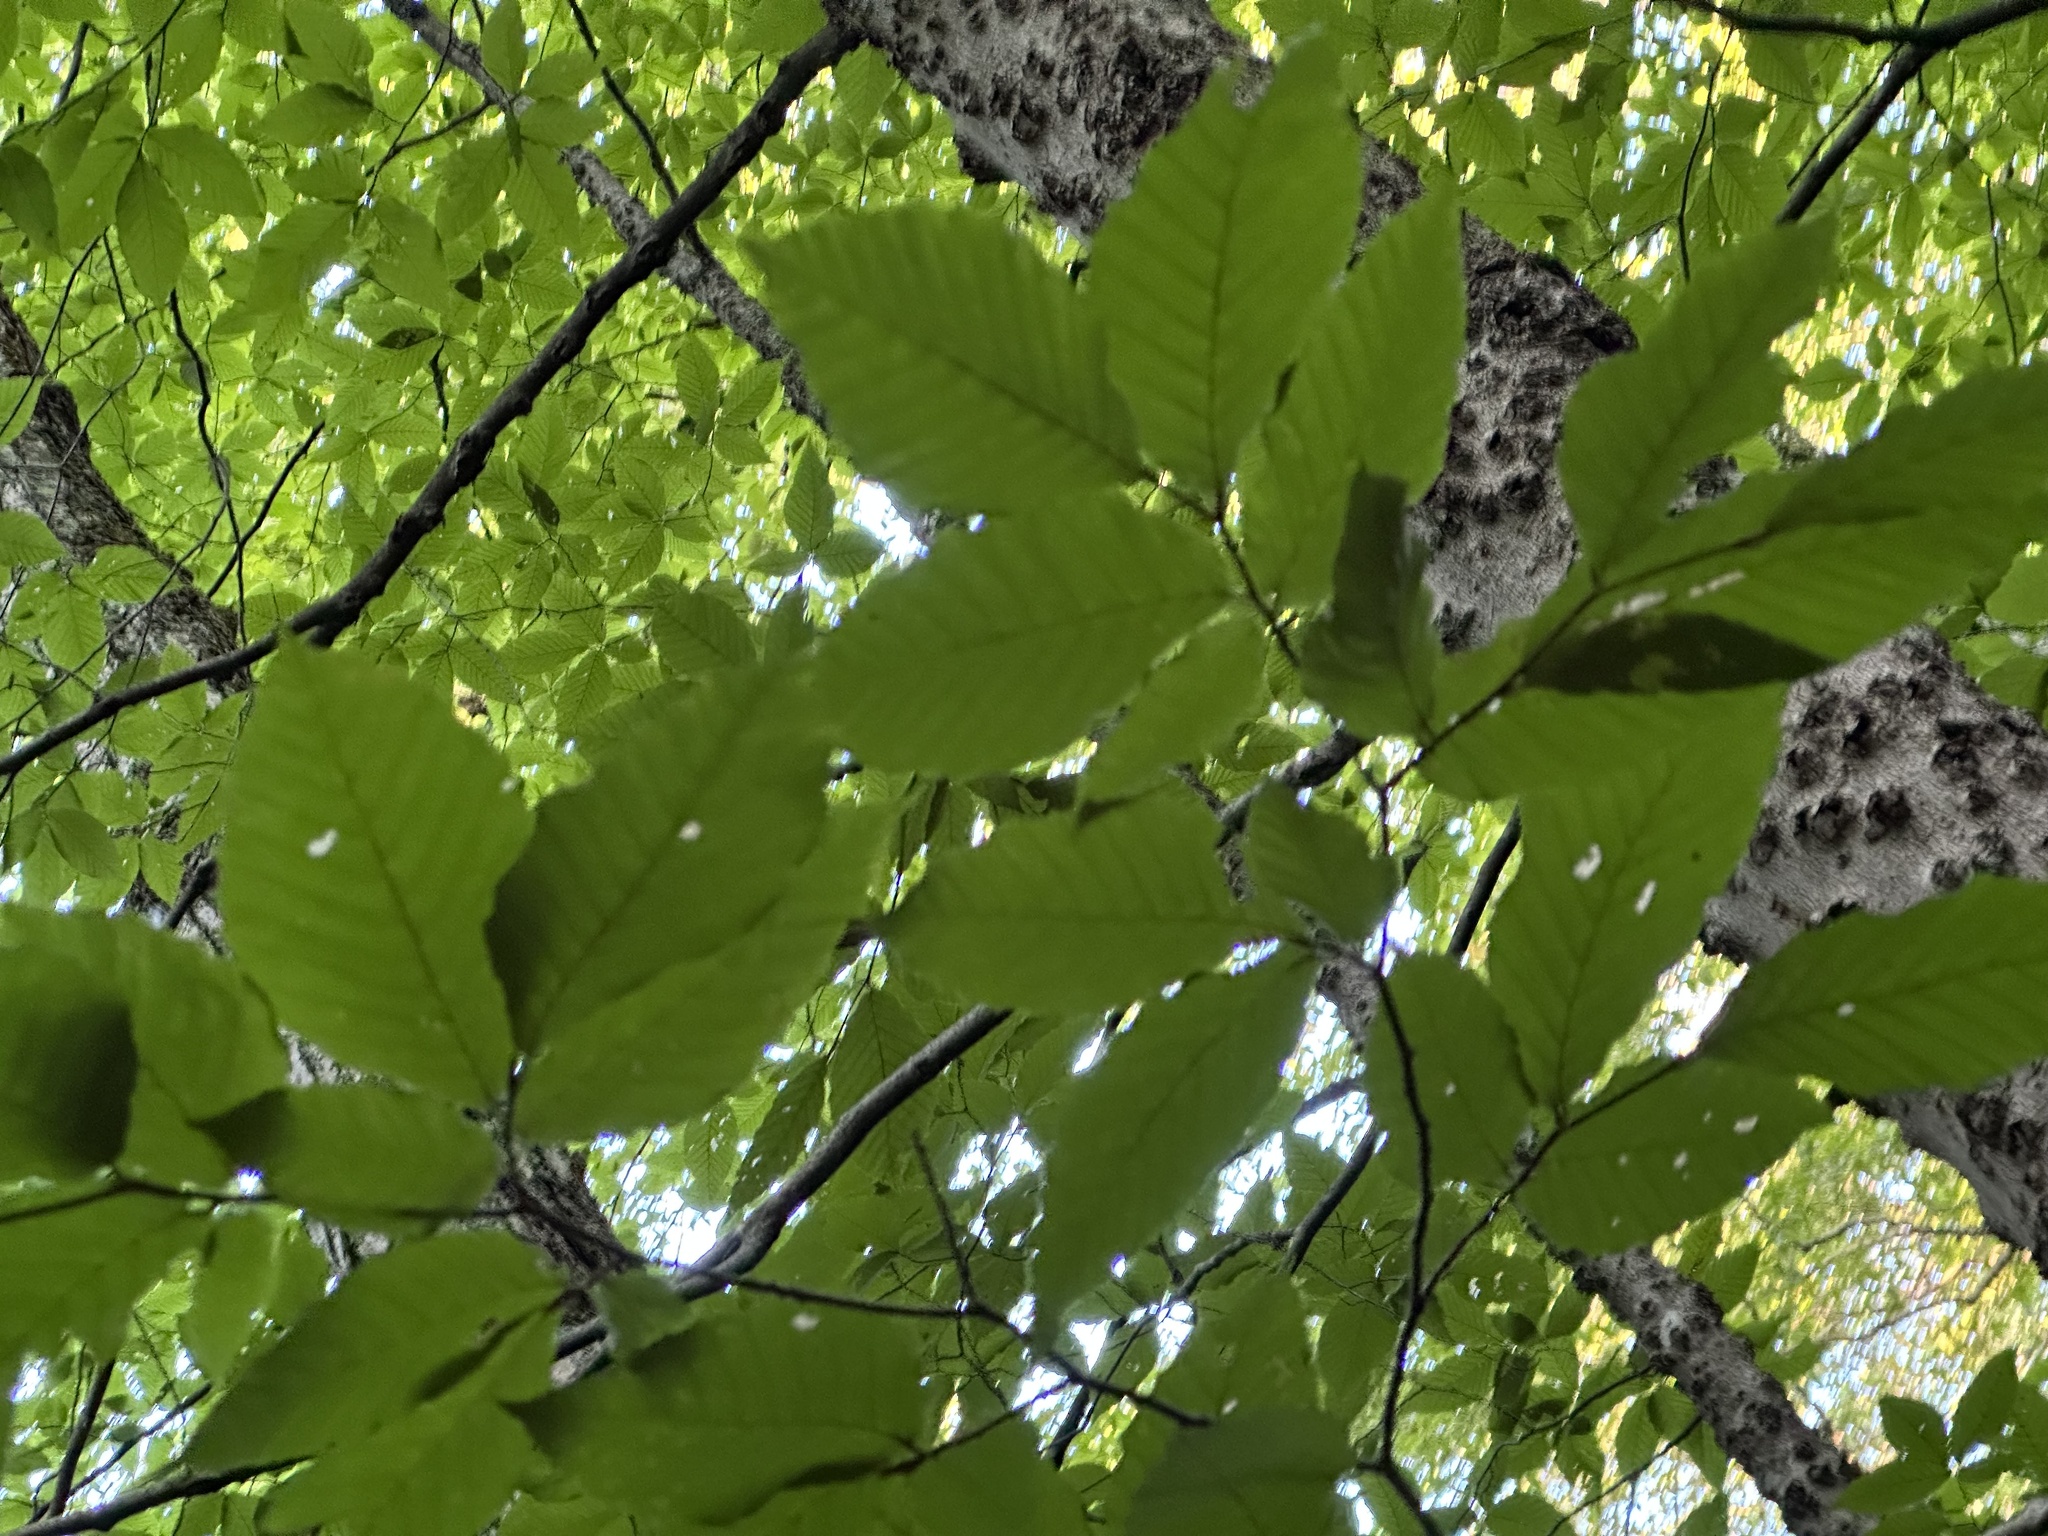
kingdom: Plantae
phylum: Tracheophyta
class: Magnoliopsida
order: Fagales
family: Fagaceae
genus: Fagus
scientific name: Fagus grandifolia
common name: American beech
